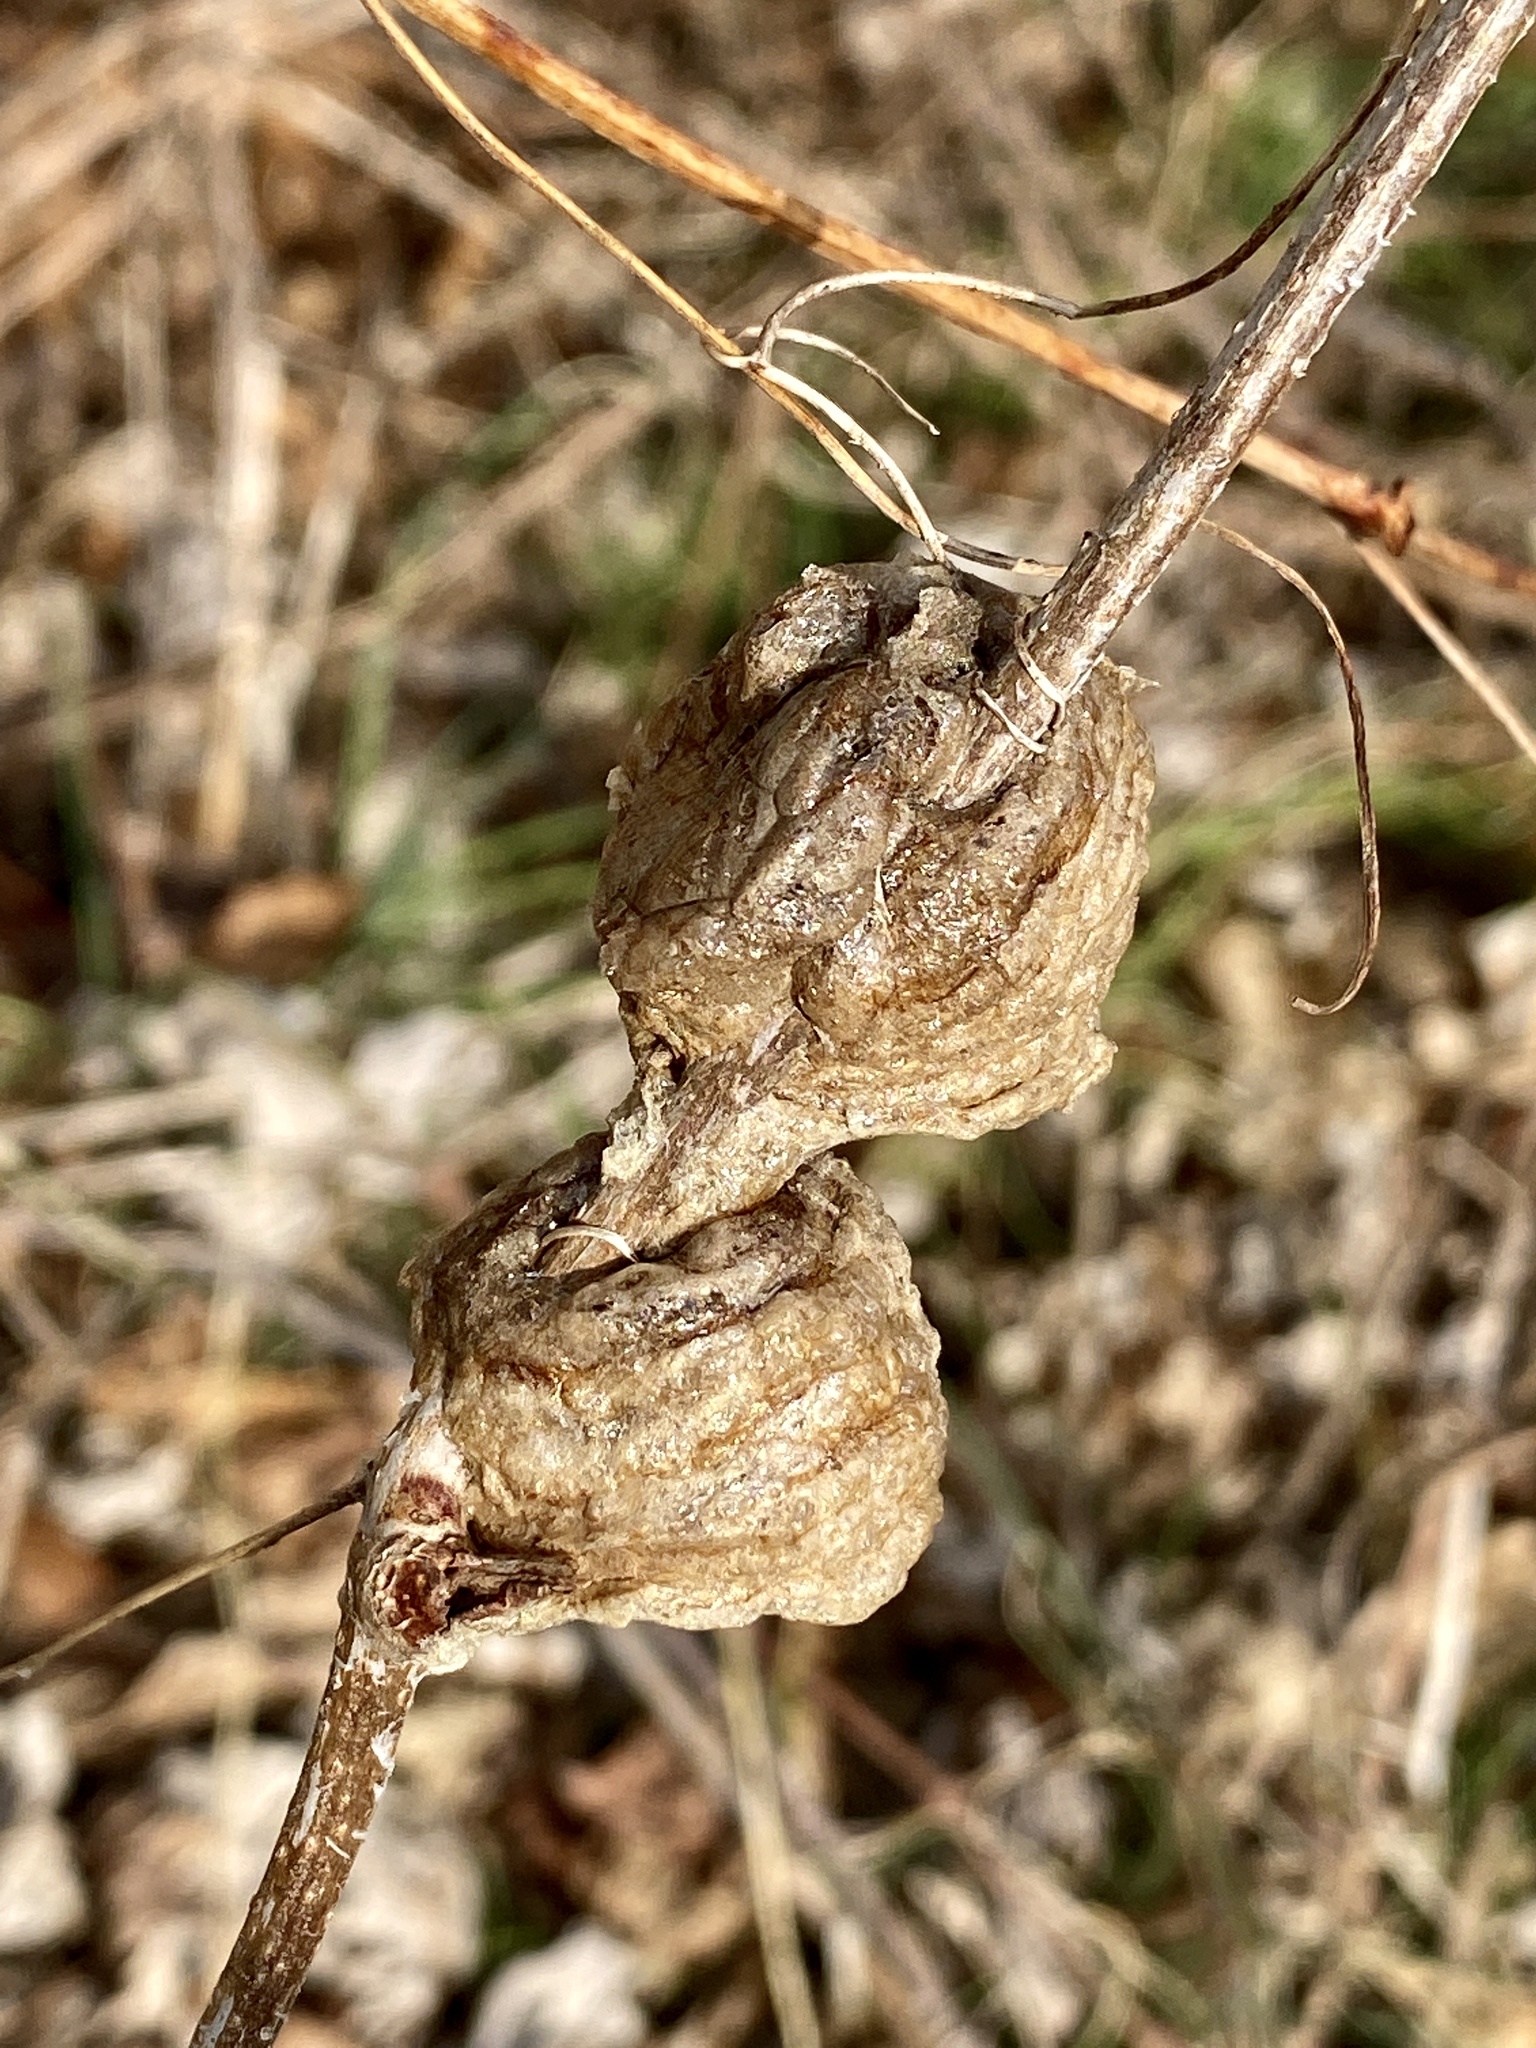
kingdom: Animalia
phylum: Arthropoda
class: Insecta
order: Mantodea
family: Mantidae
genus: Tenodera
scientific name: Tenodera sinensis
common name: Chinese mantis
